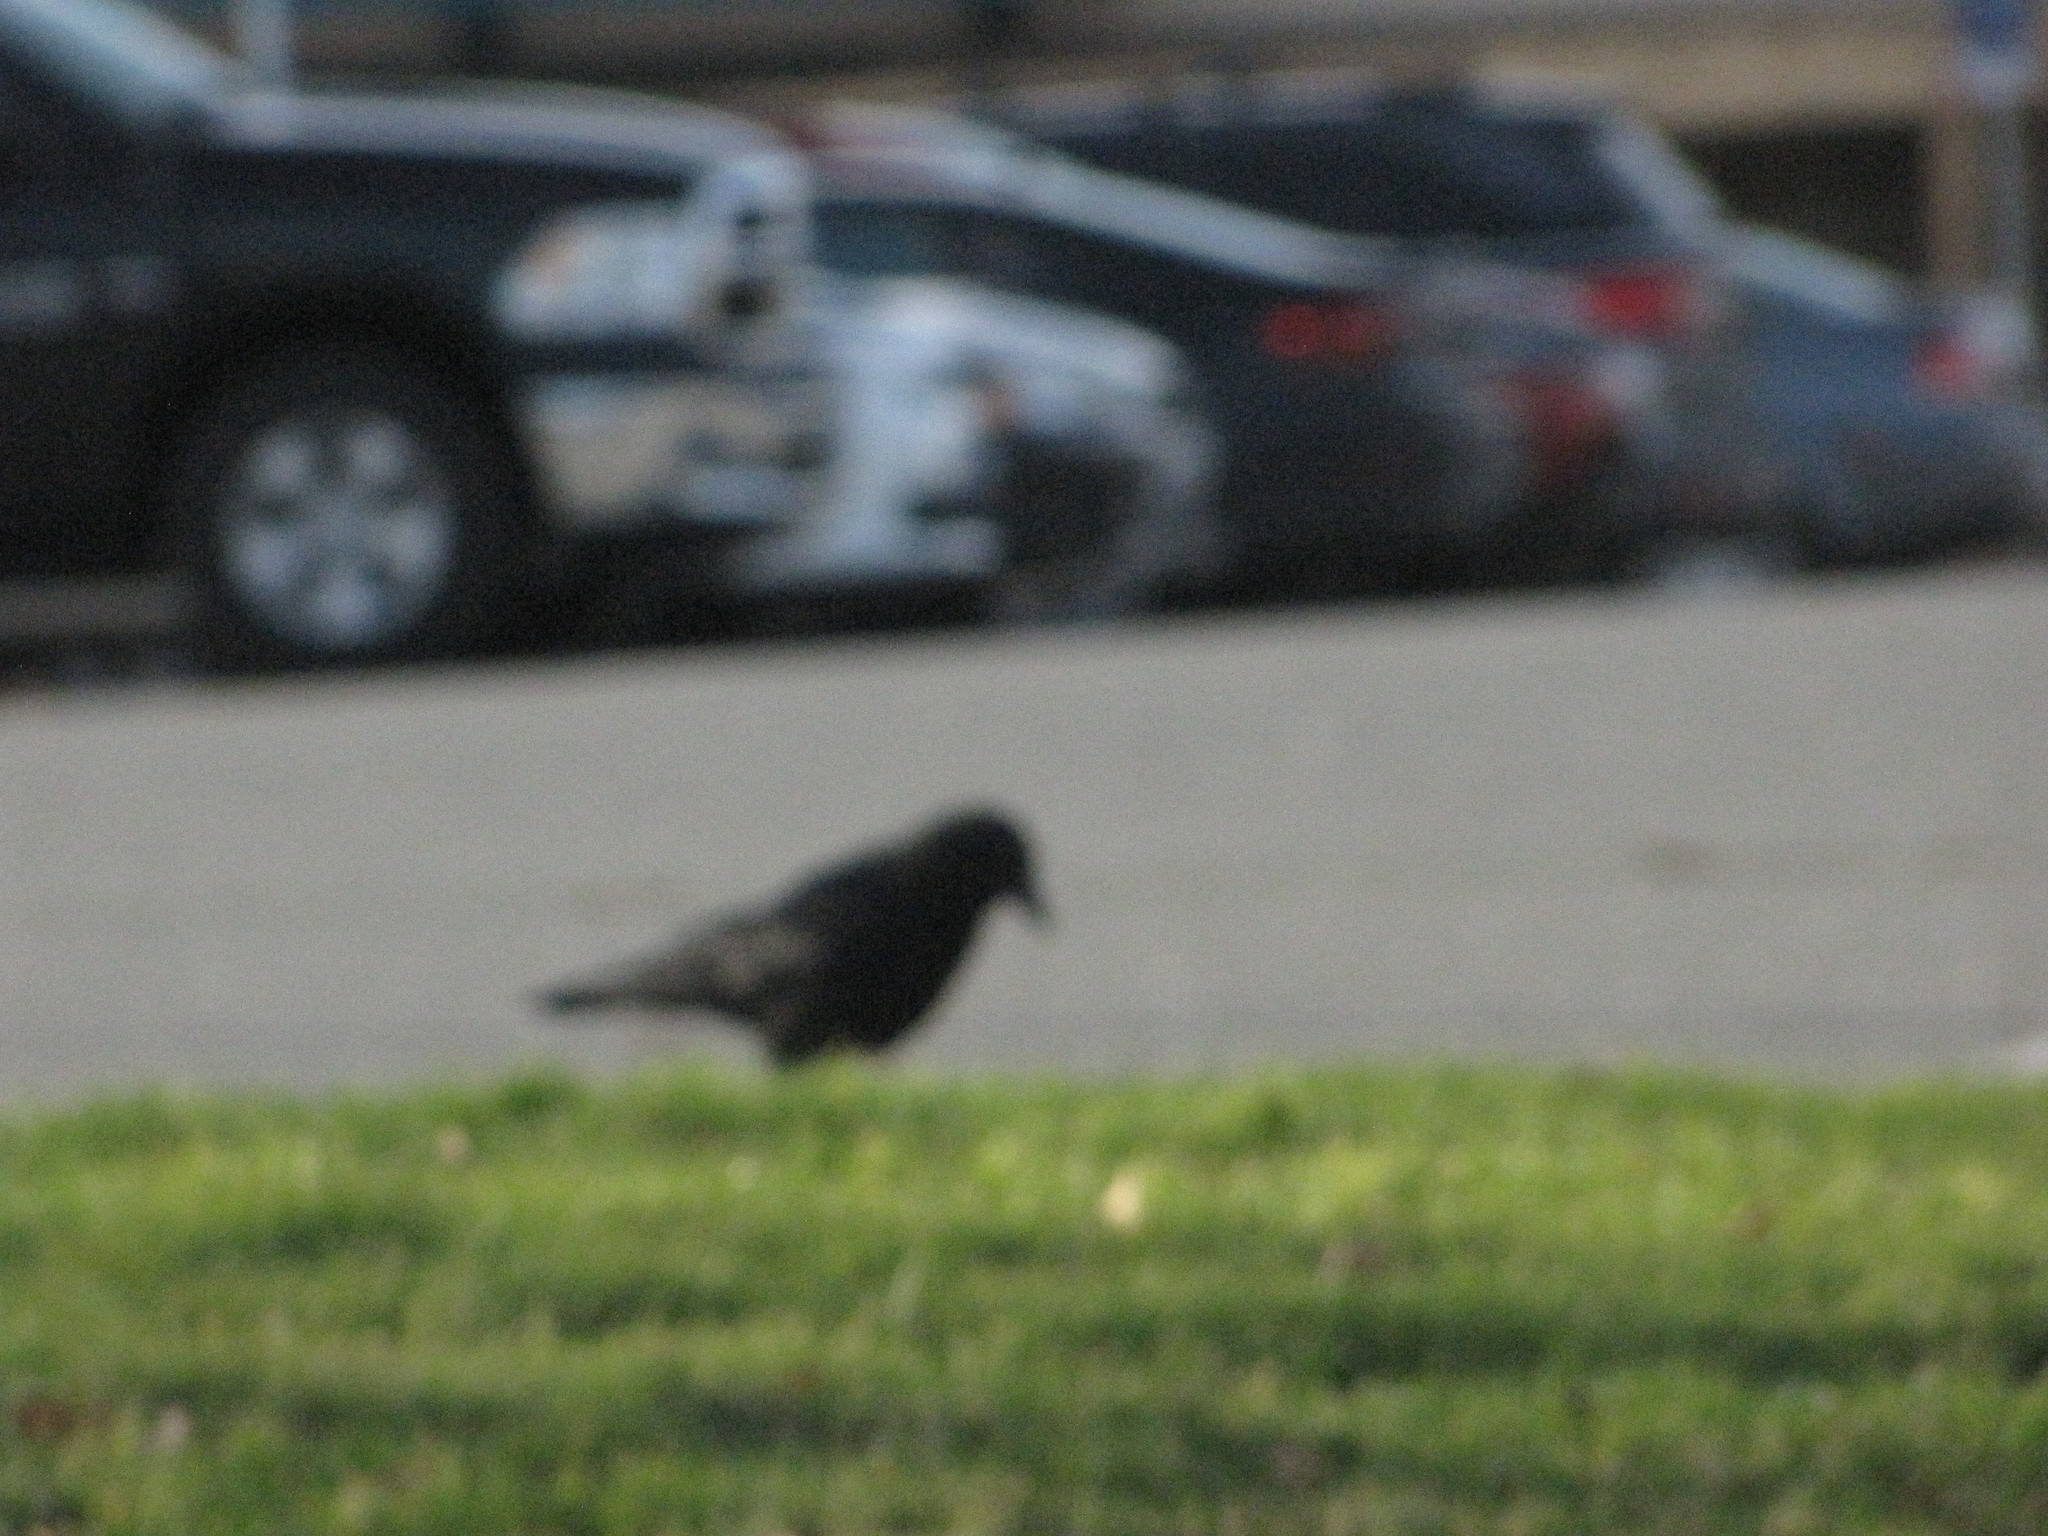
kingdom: Animalia
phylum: Chordata
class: Aves
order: Passeriformes
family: Corvidae
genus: Corvus
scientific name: Corvus brachyrhynchos
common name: American crow
